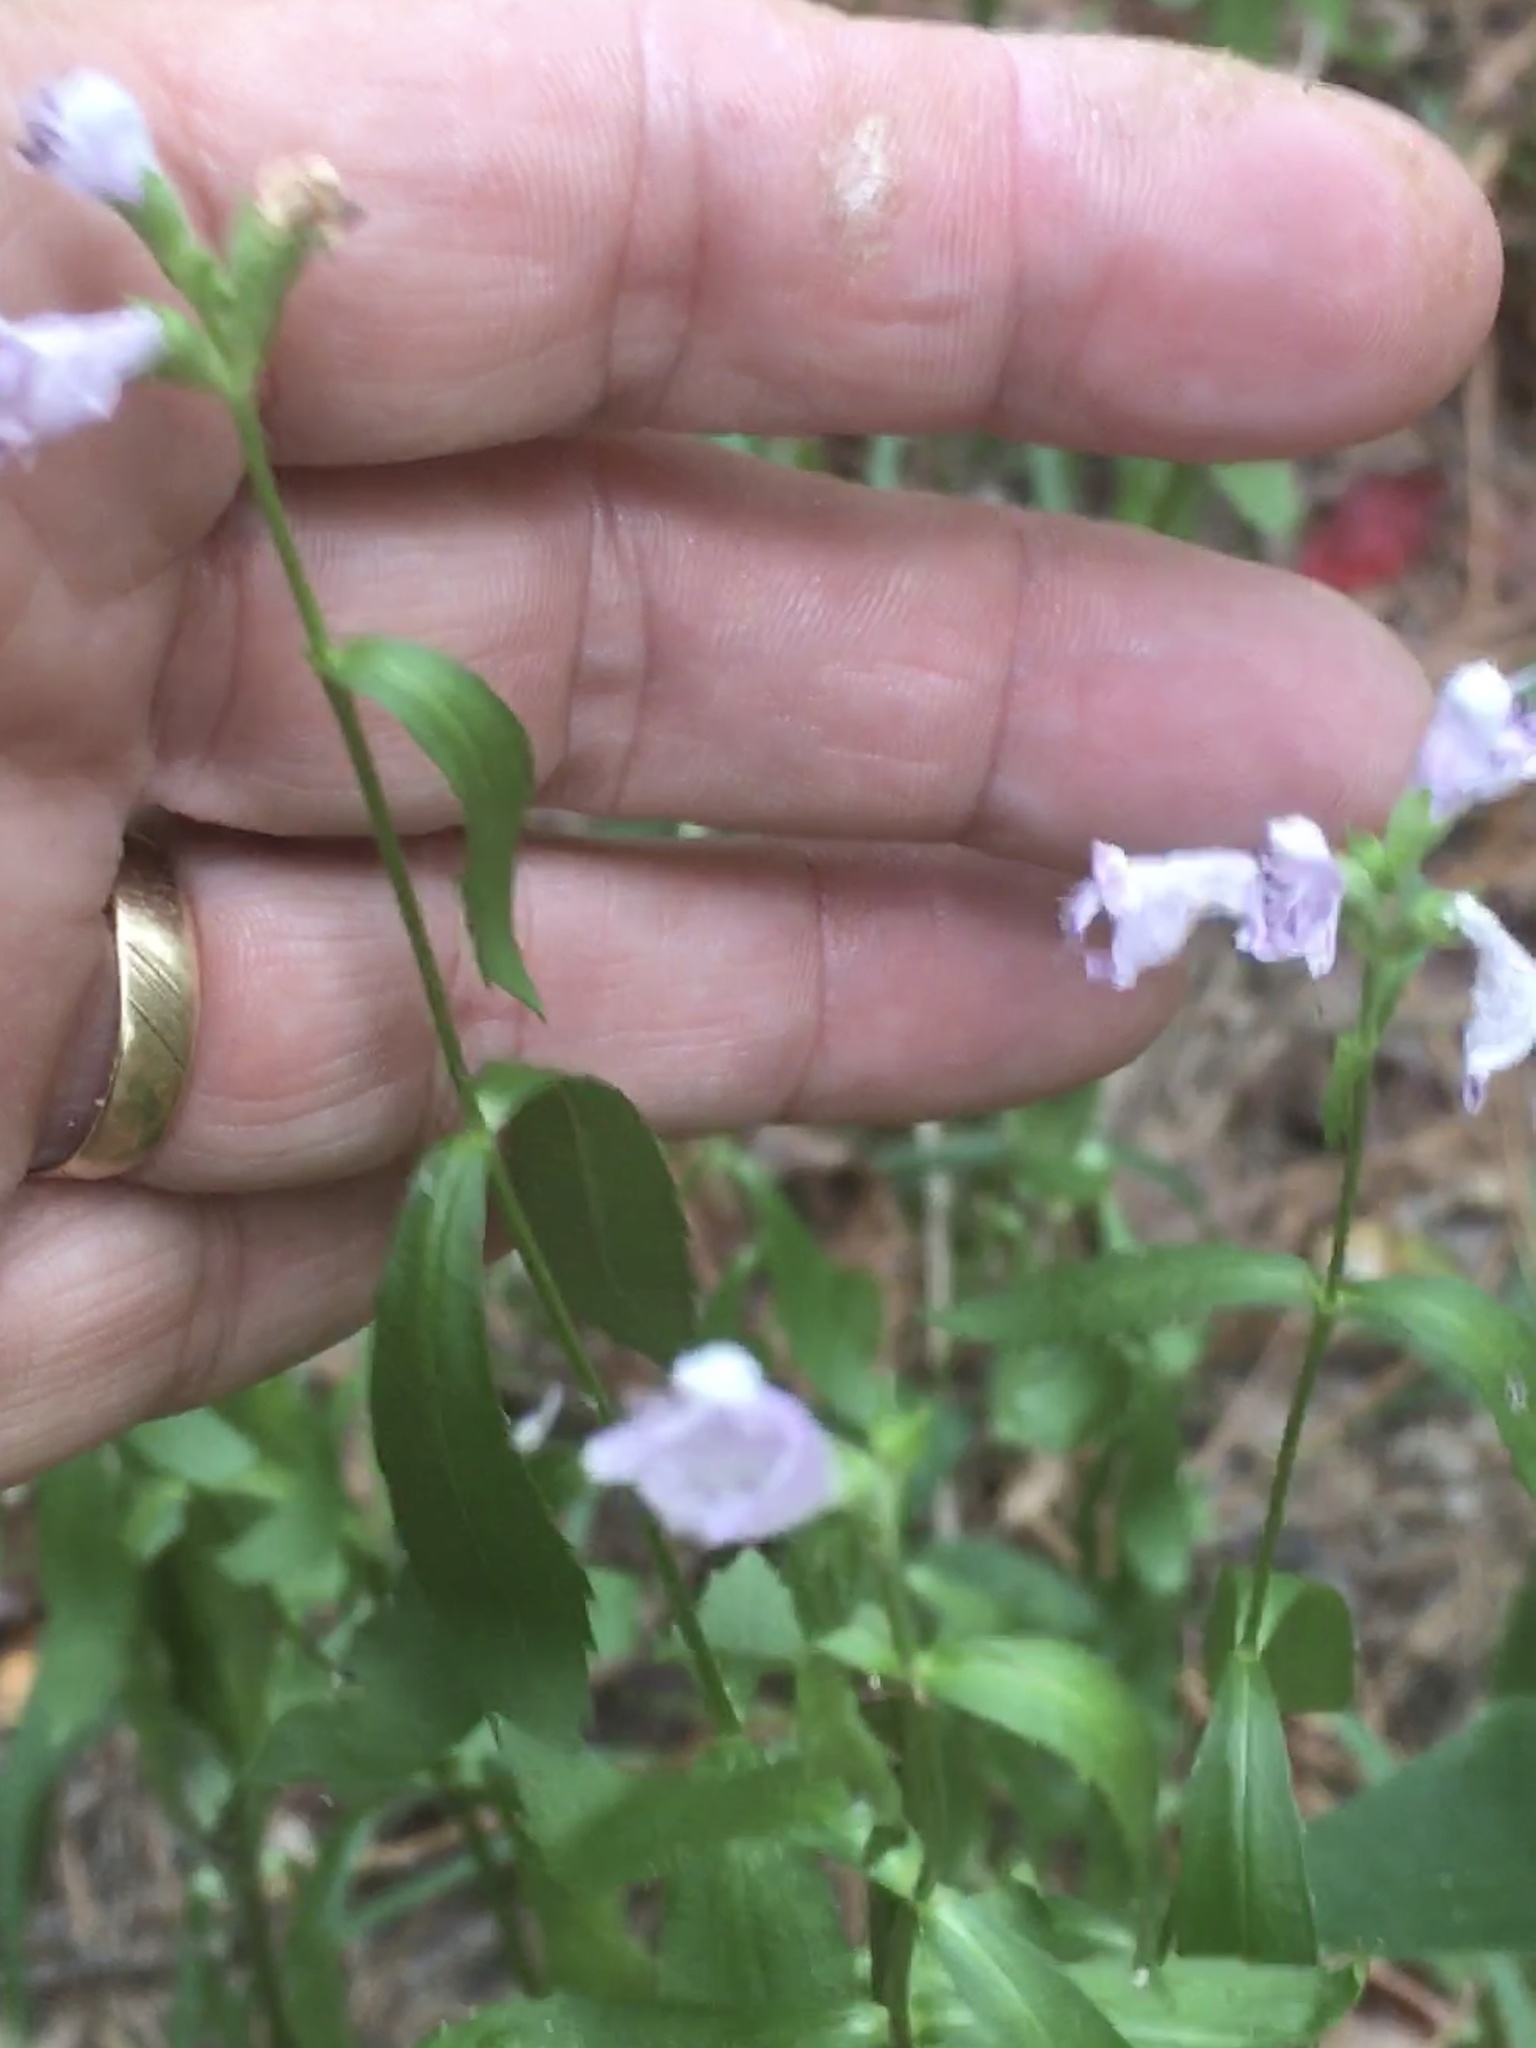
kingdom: Plantae
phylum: Tracheophyta
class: Magnoliopsida
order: Lamiales
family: Lamiaceae
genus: Physostegia
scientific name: Physostegia virginiana
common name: Obedient-plant
